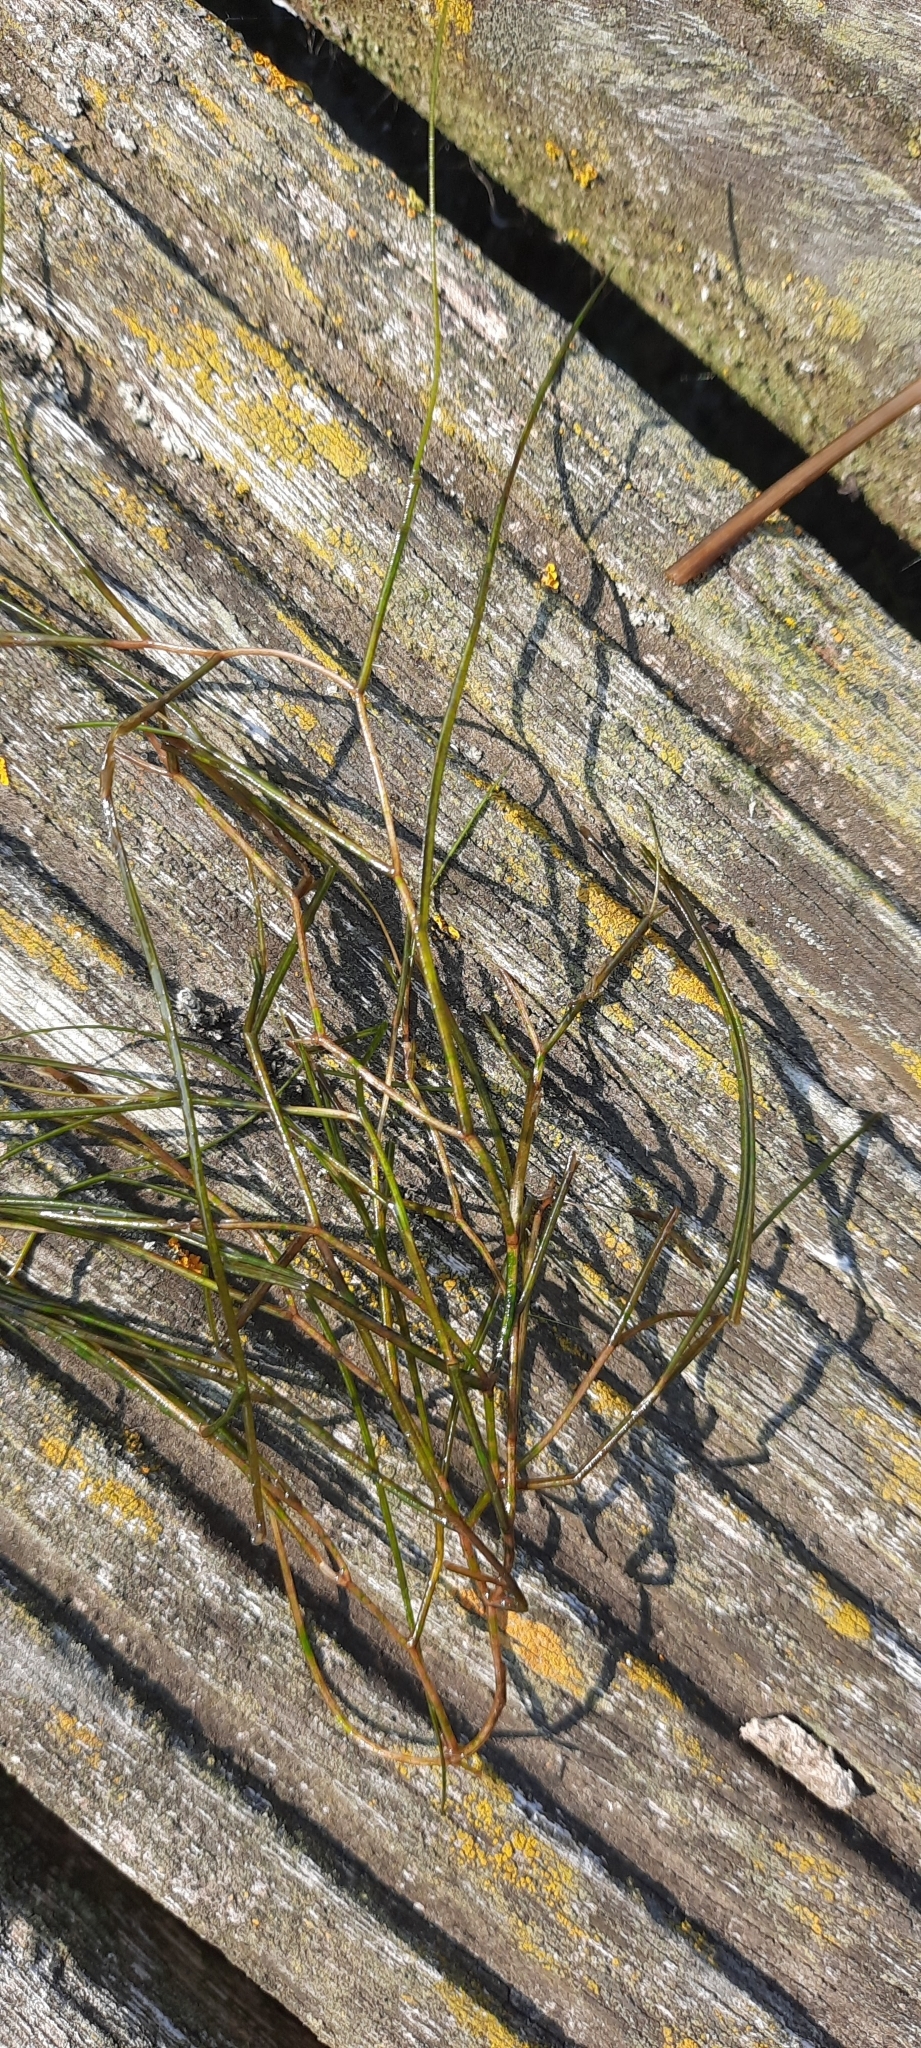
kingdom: Plantae
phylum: Tracheophyta
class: Liliopsida
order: Alismatales
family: Potamogetonaceae
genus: Stuckenia
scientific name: Stuckenia pectinata
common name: Sago pondweed
